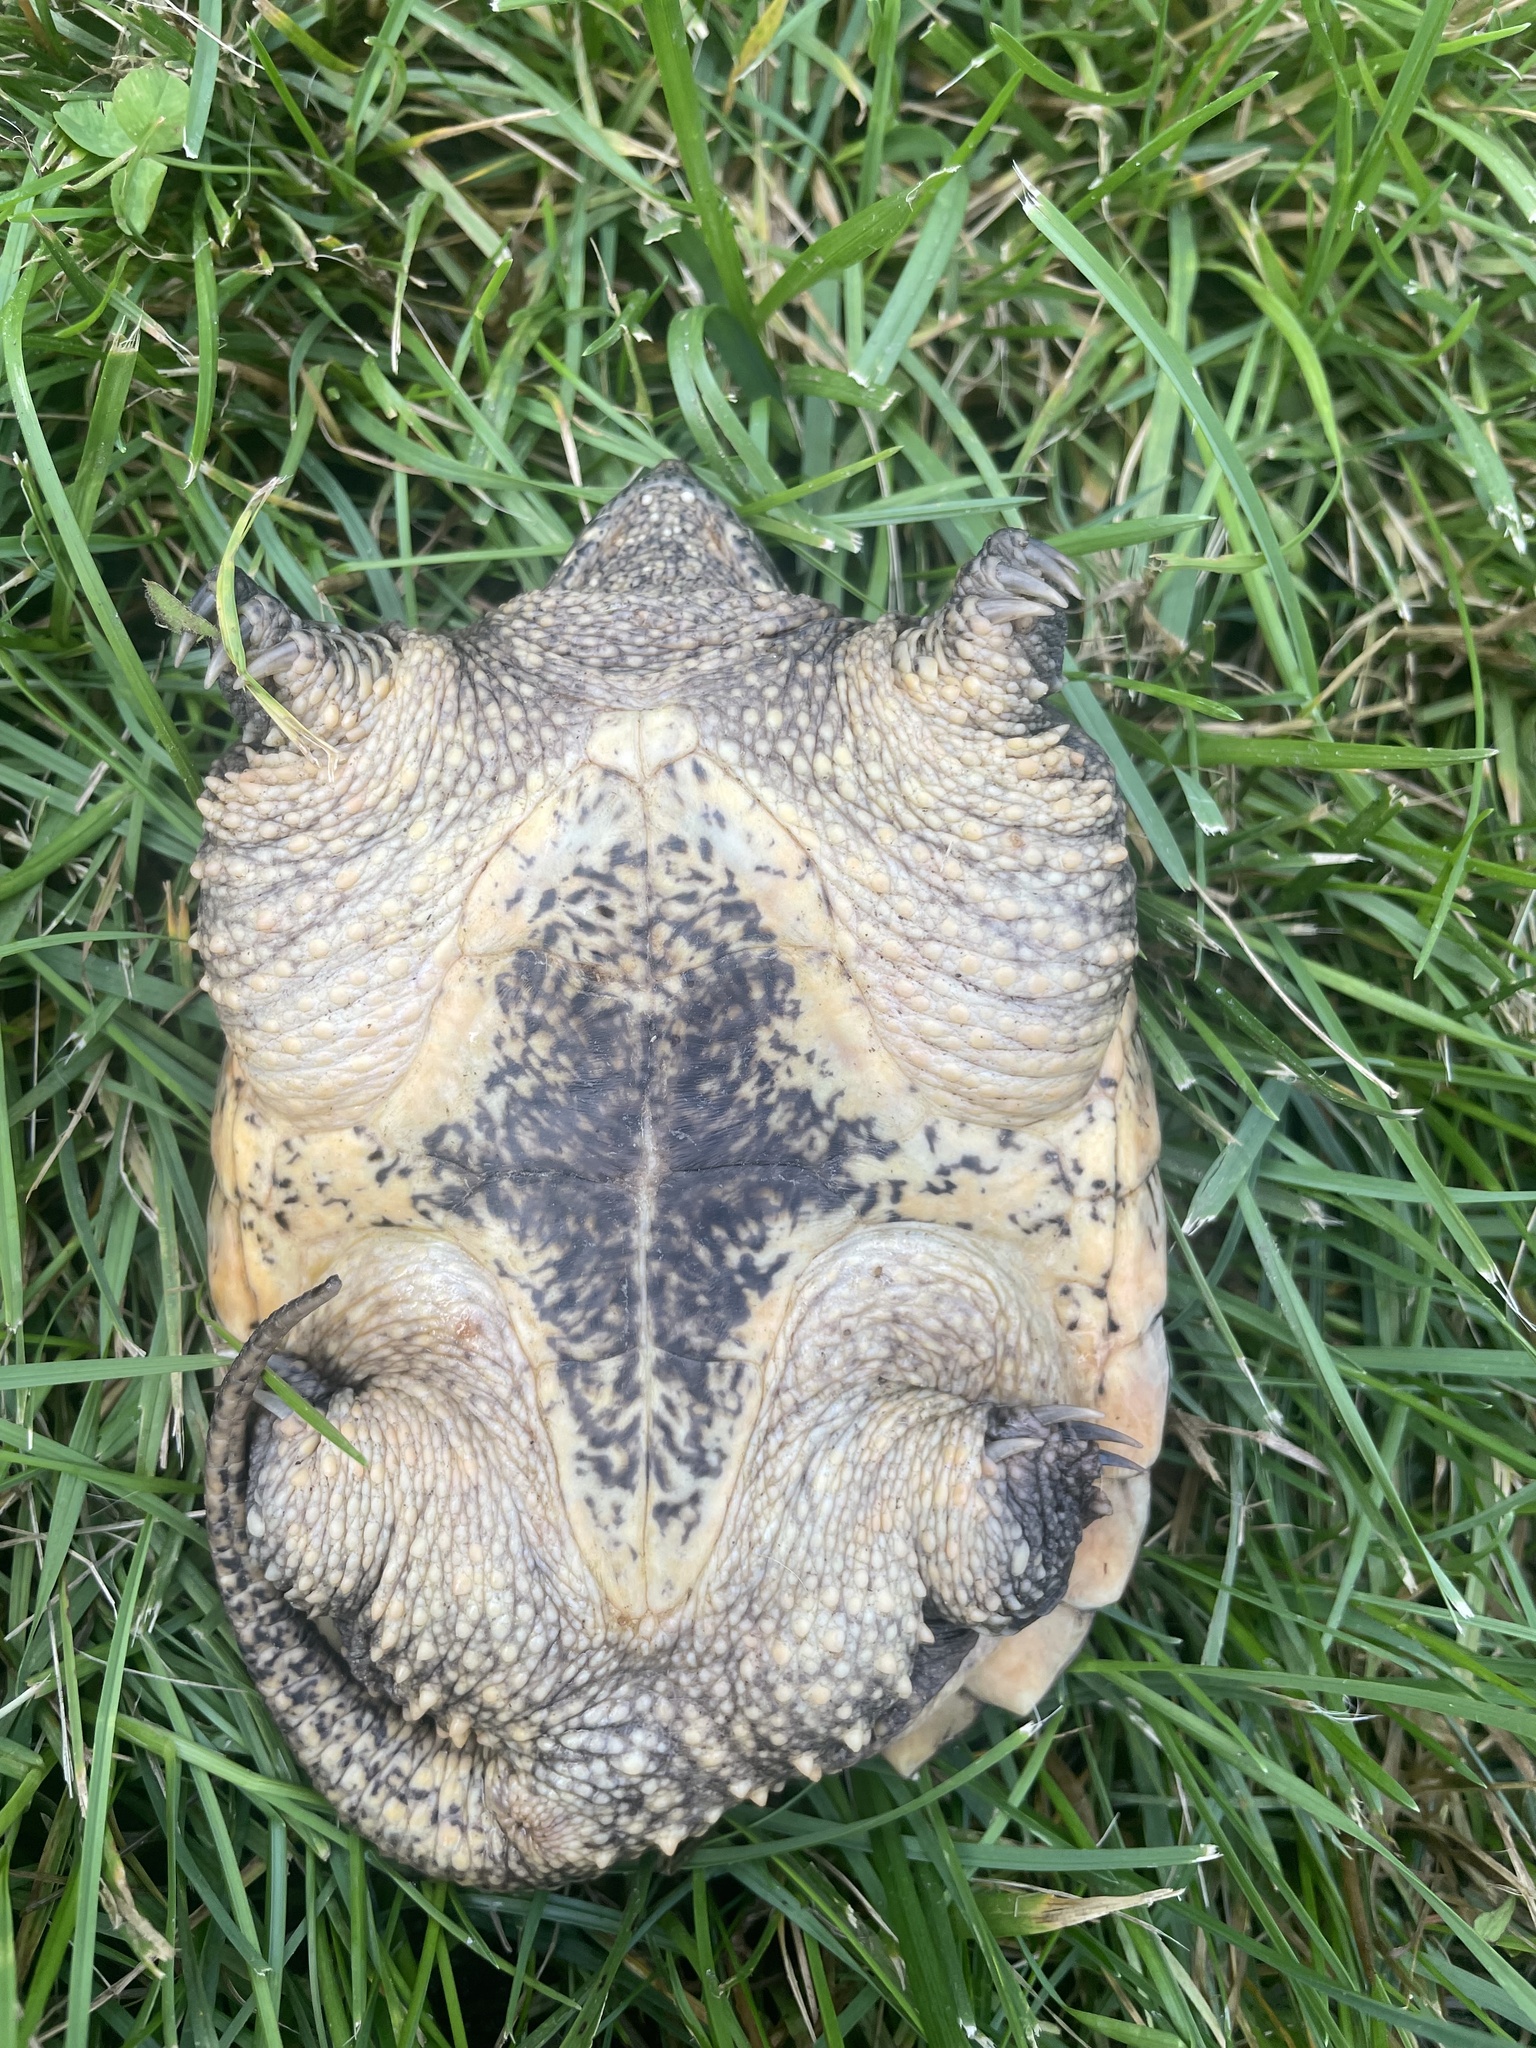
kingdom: Animalia
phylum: Chordata
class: Testudines
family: Chelydridae
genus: Chelydra
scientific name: Chelydra serpentina
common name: Common snapping turtle
